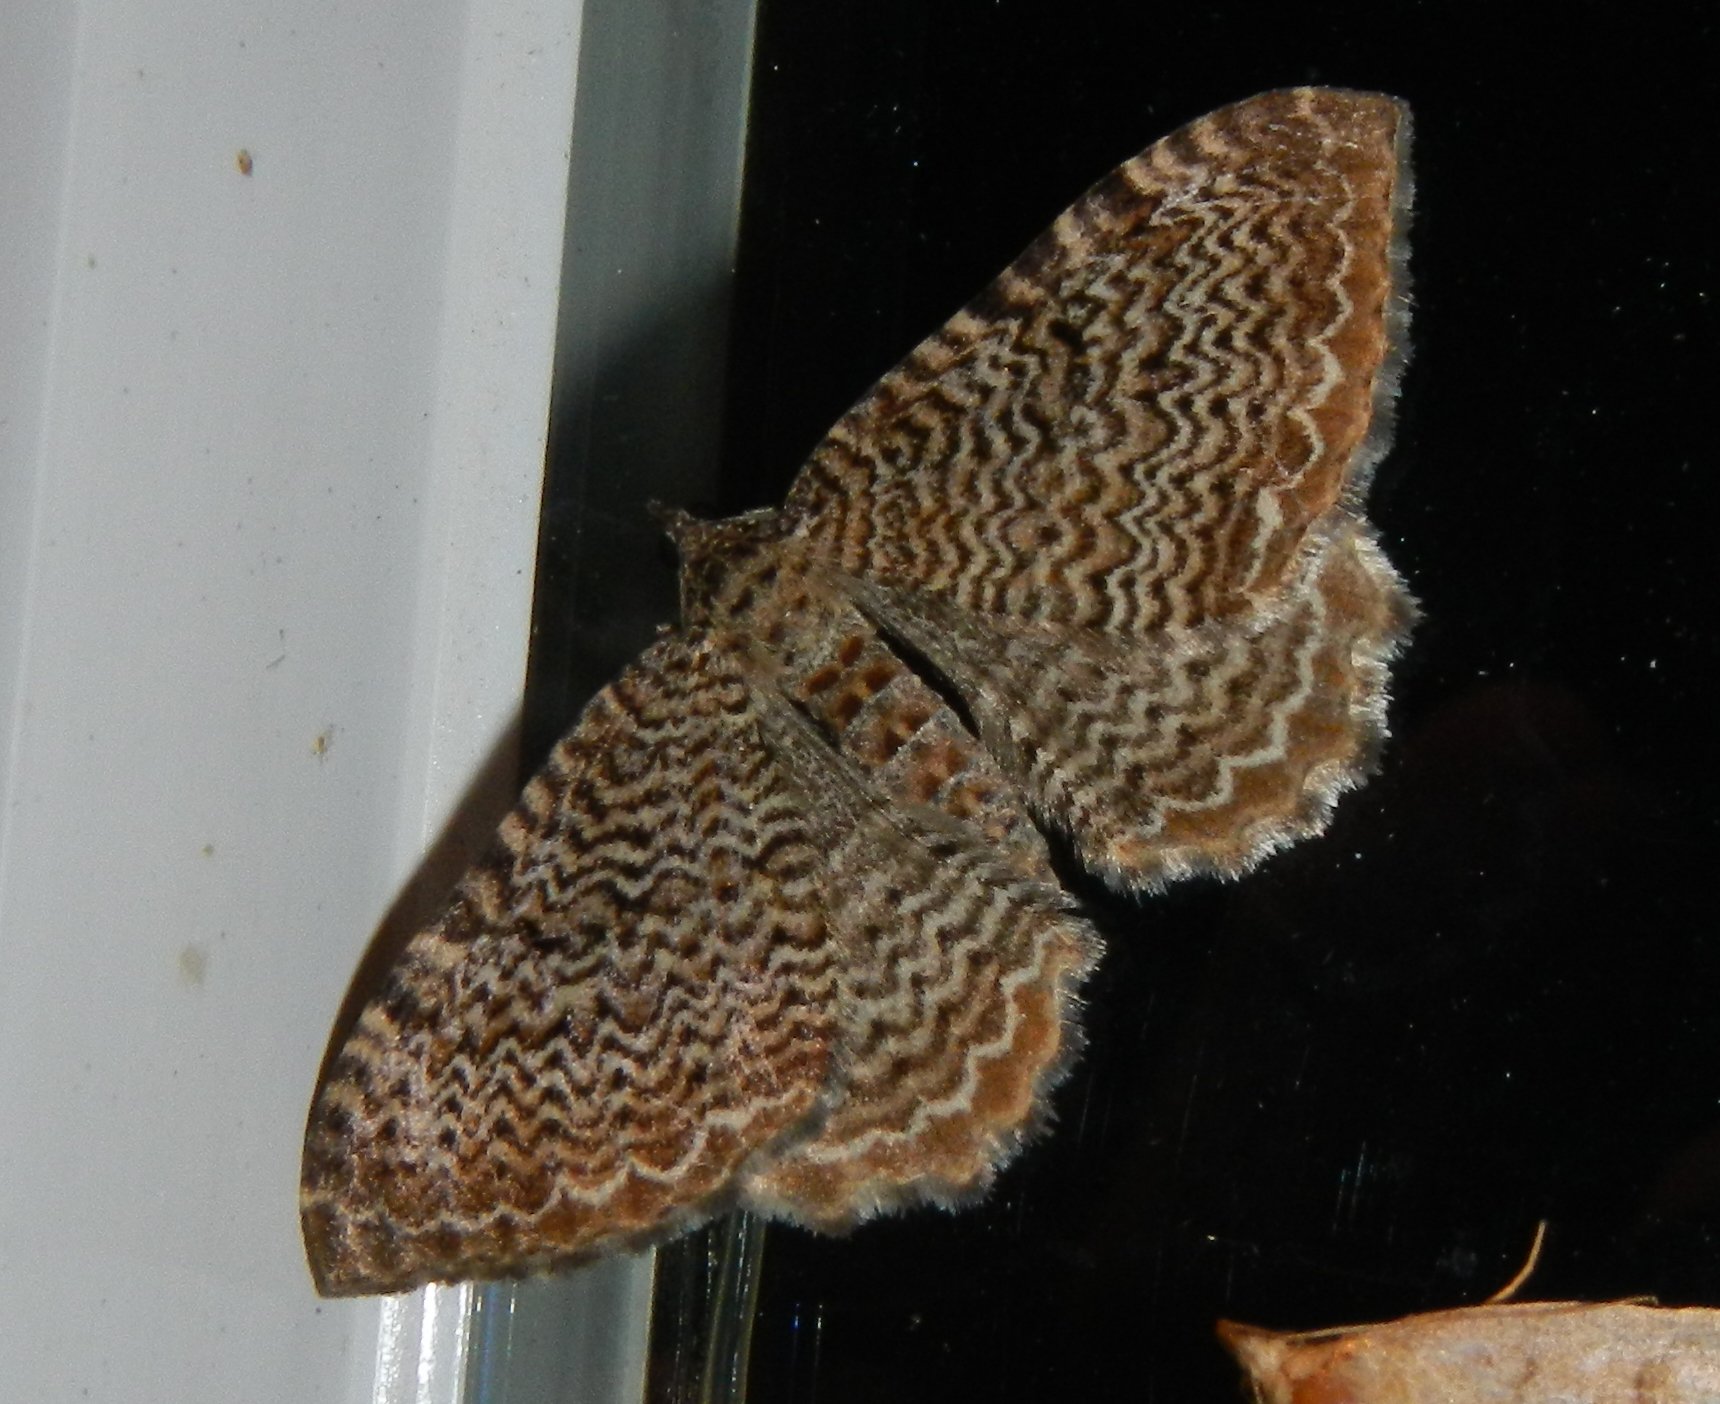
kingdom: Animalia
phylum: Arthropoda
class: Insecta
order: Lepidoptera
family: Geometridae
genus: Rheumaptera
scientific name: Rheumaptera
